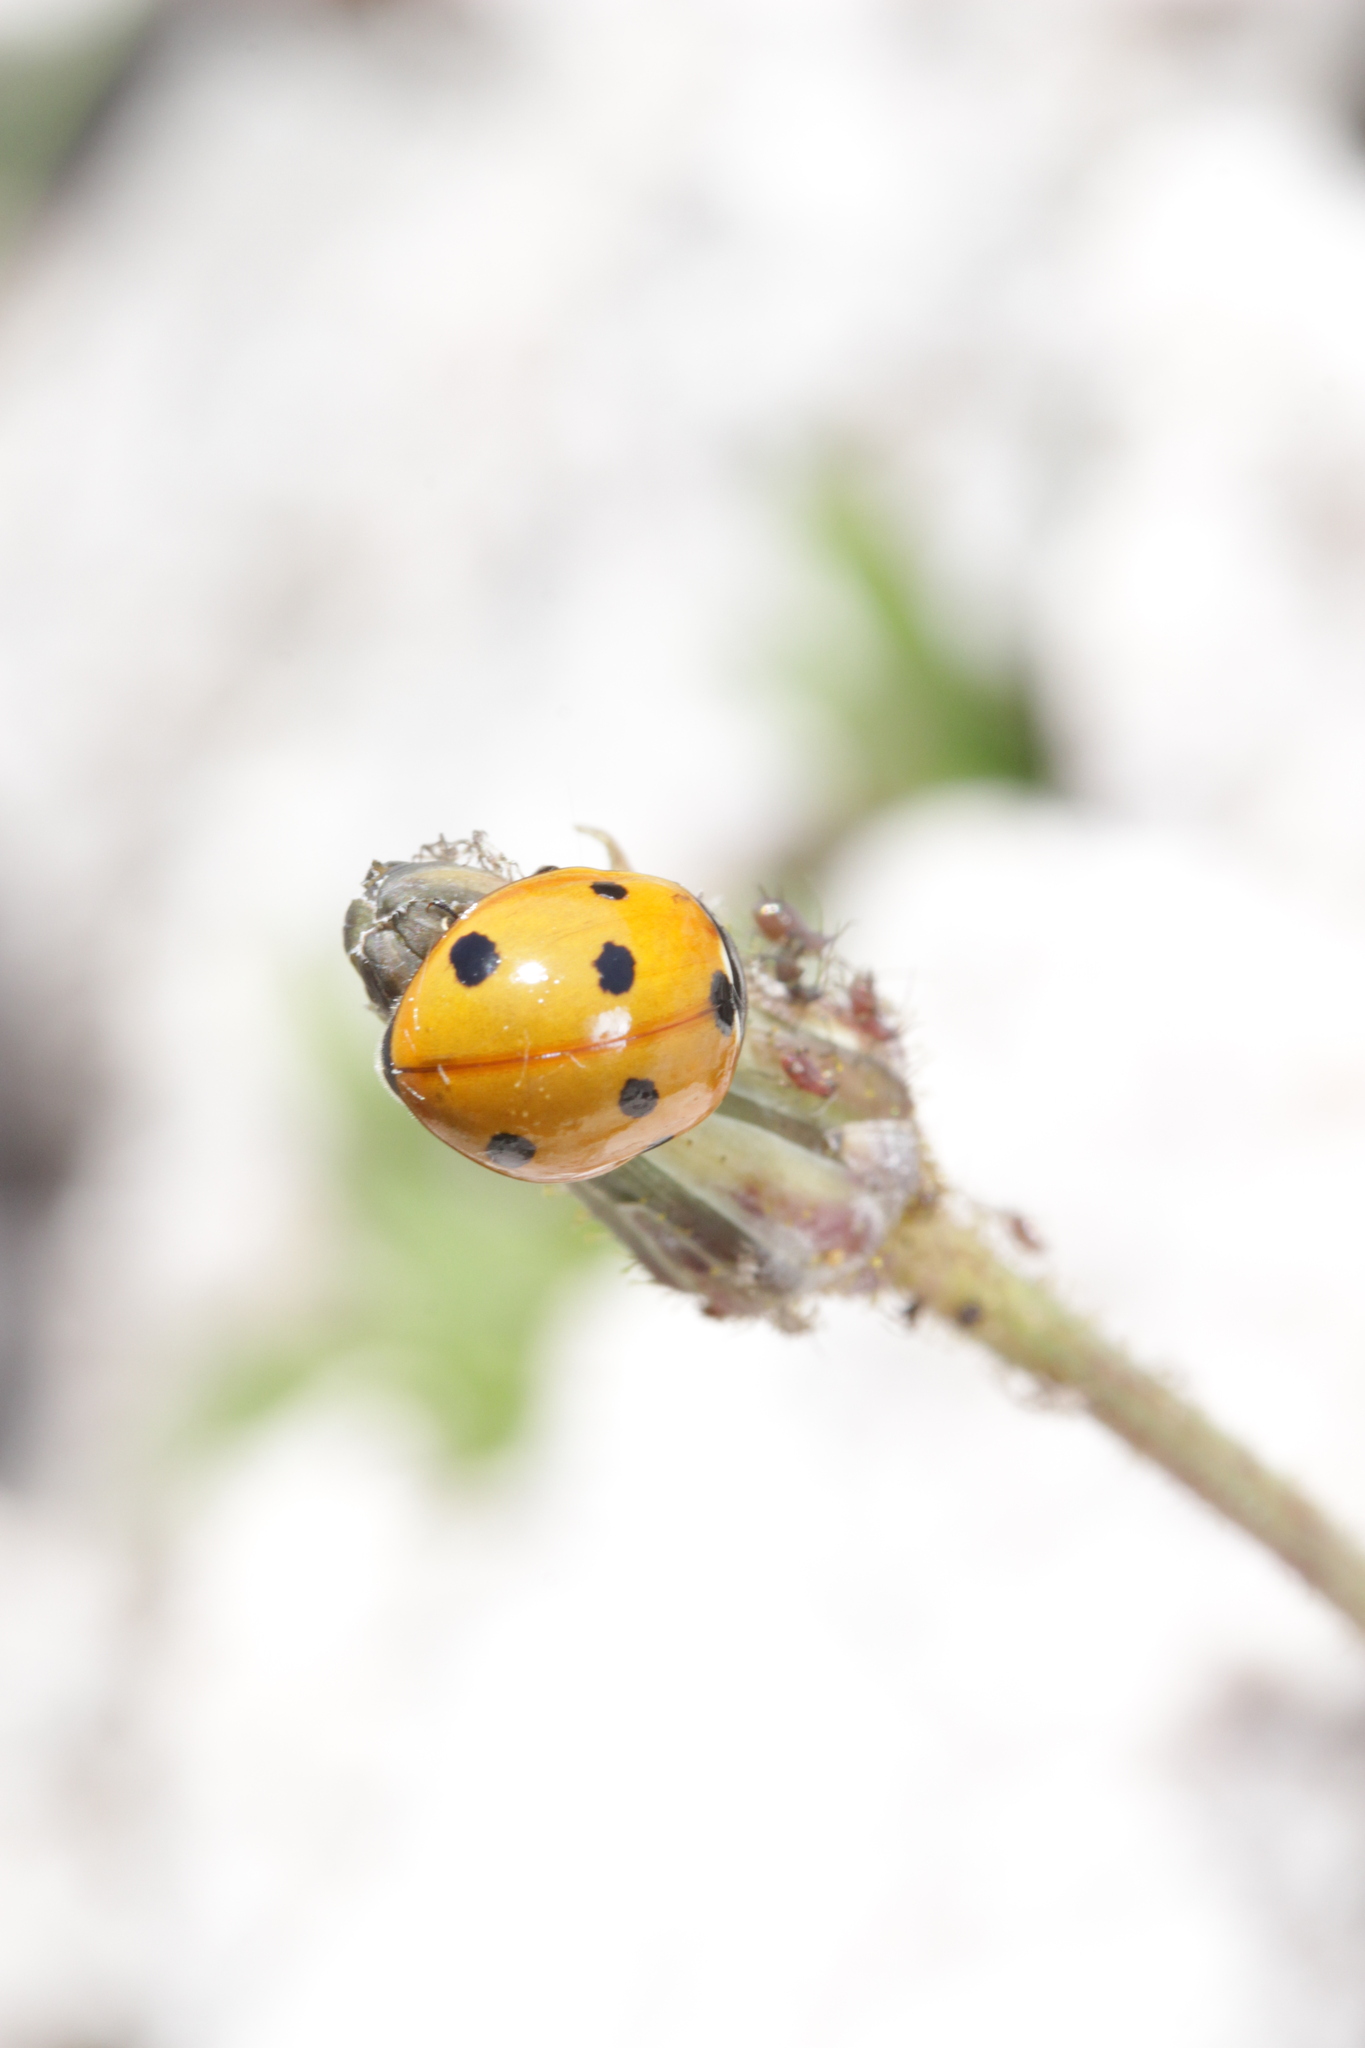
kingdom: Animalia
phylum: Arthropoda
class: Insecta
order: Coleoptera
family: Coccinellidae
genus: Coccinella
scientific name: Coccinella septempunctata
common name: Sevenspotted lady beetle
